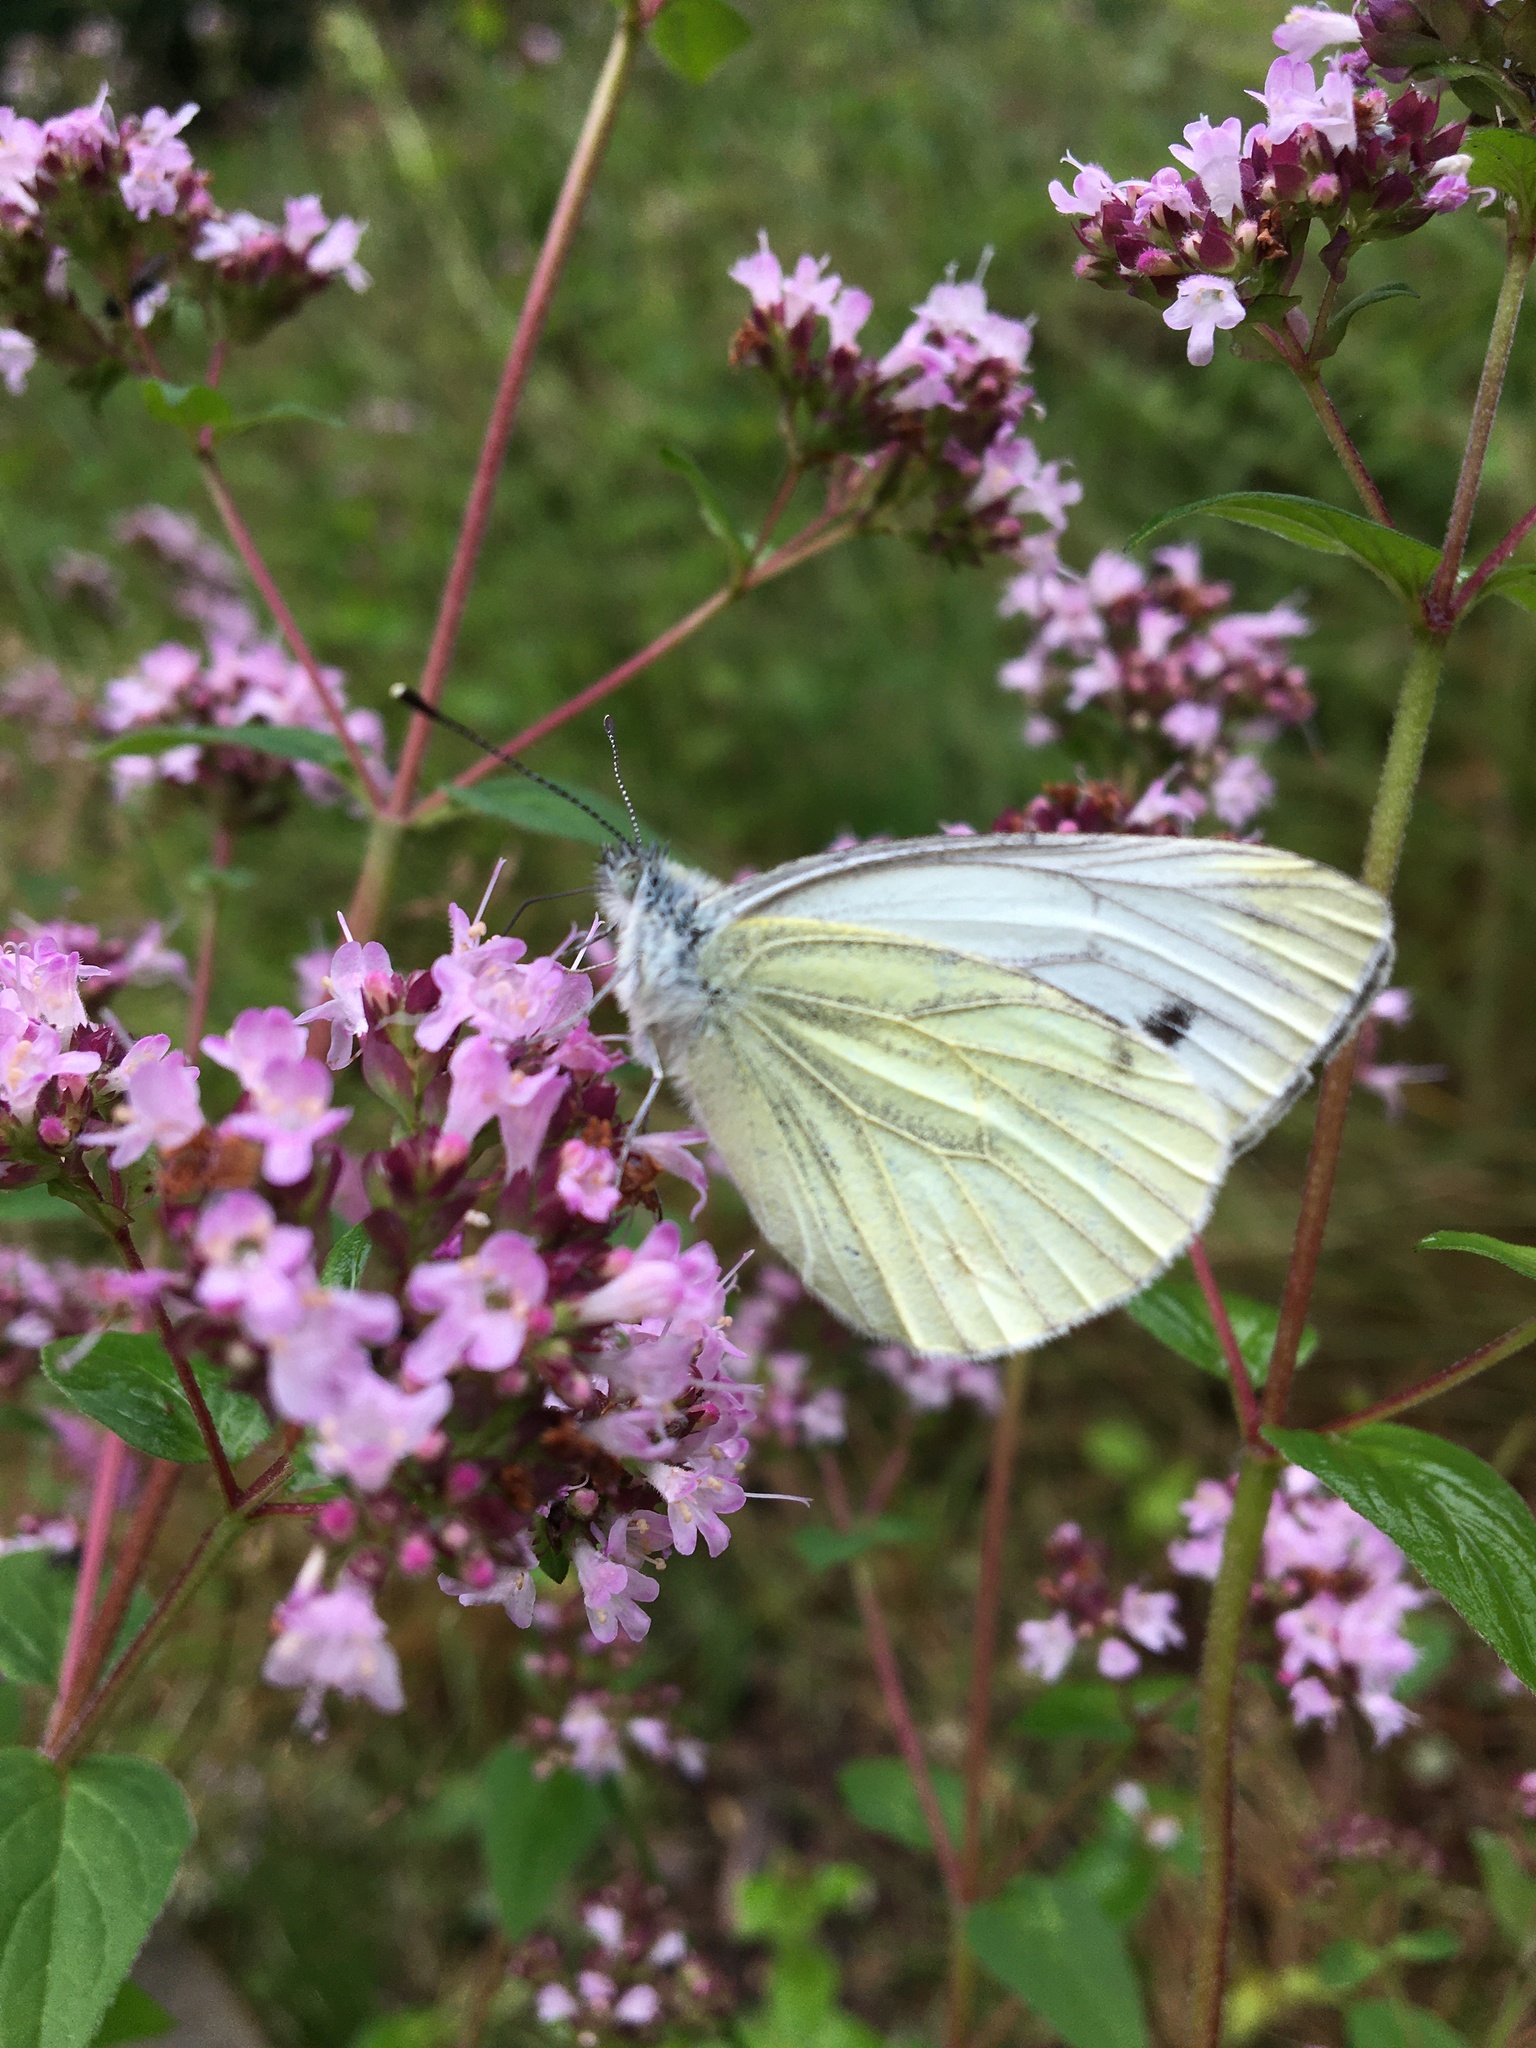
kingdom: Animalia
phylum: Arthropoda
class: Insecta
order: Lepidoptera
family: Pieridae
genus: Pieris
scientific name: Pieris napi
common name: Green-veined white
